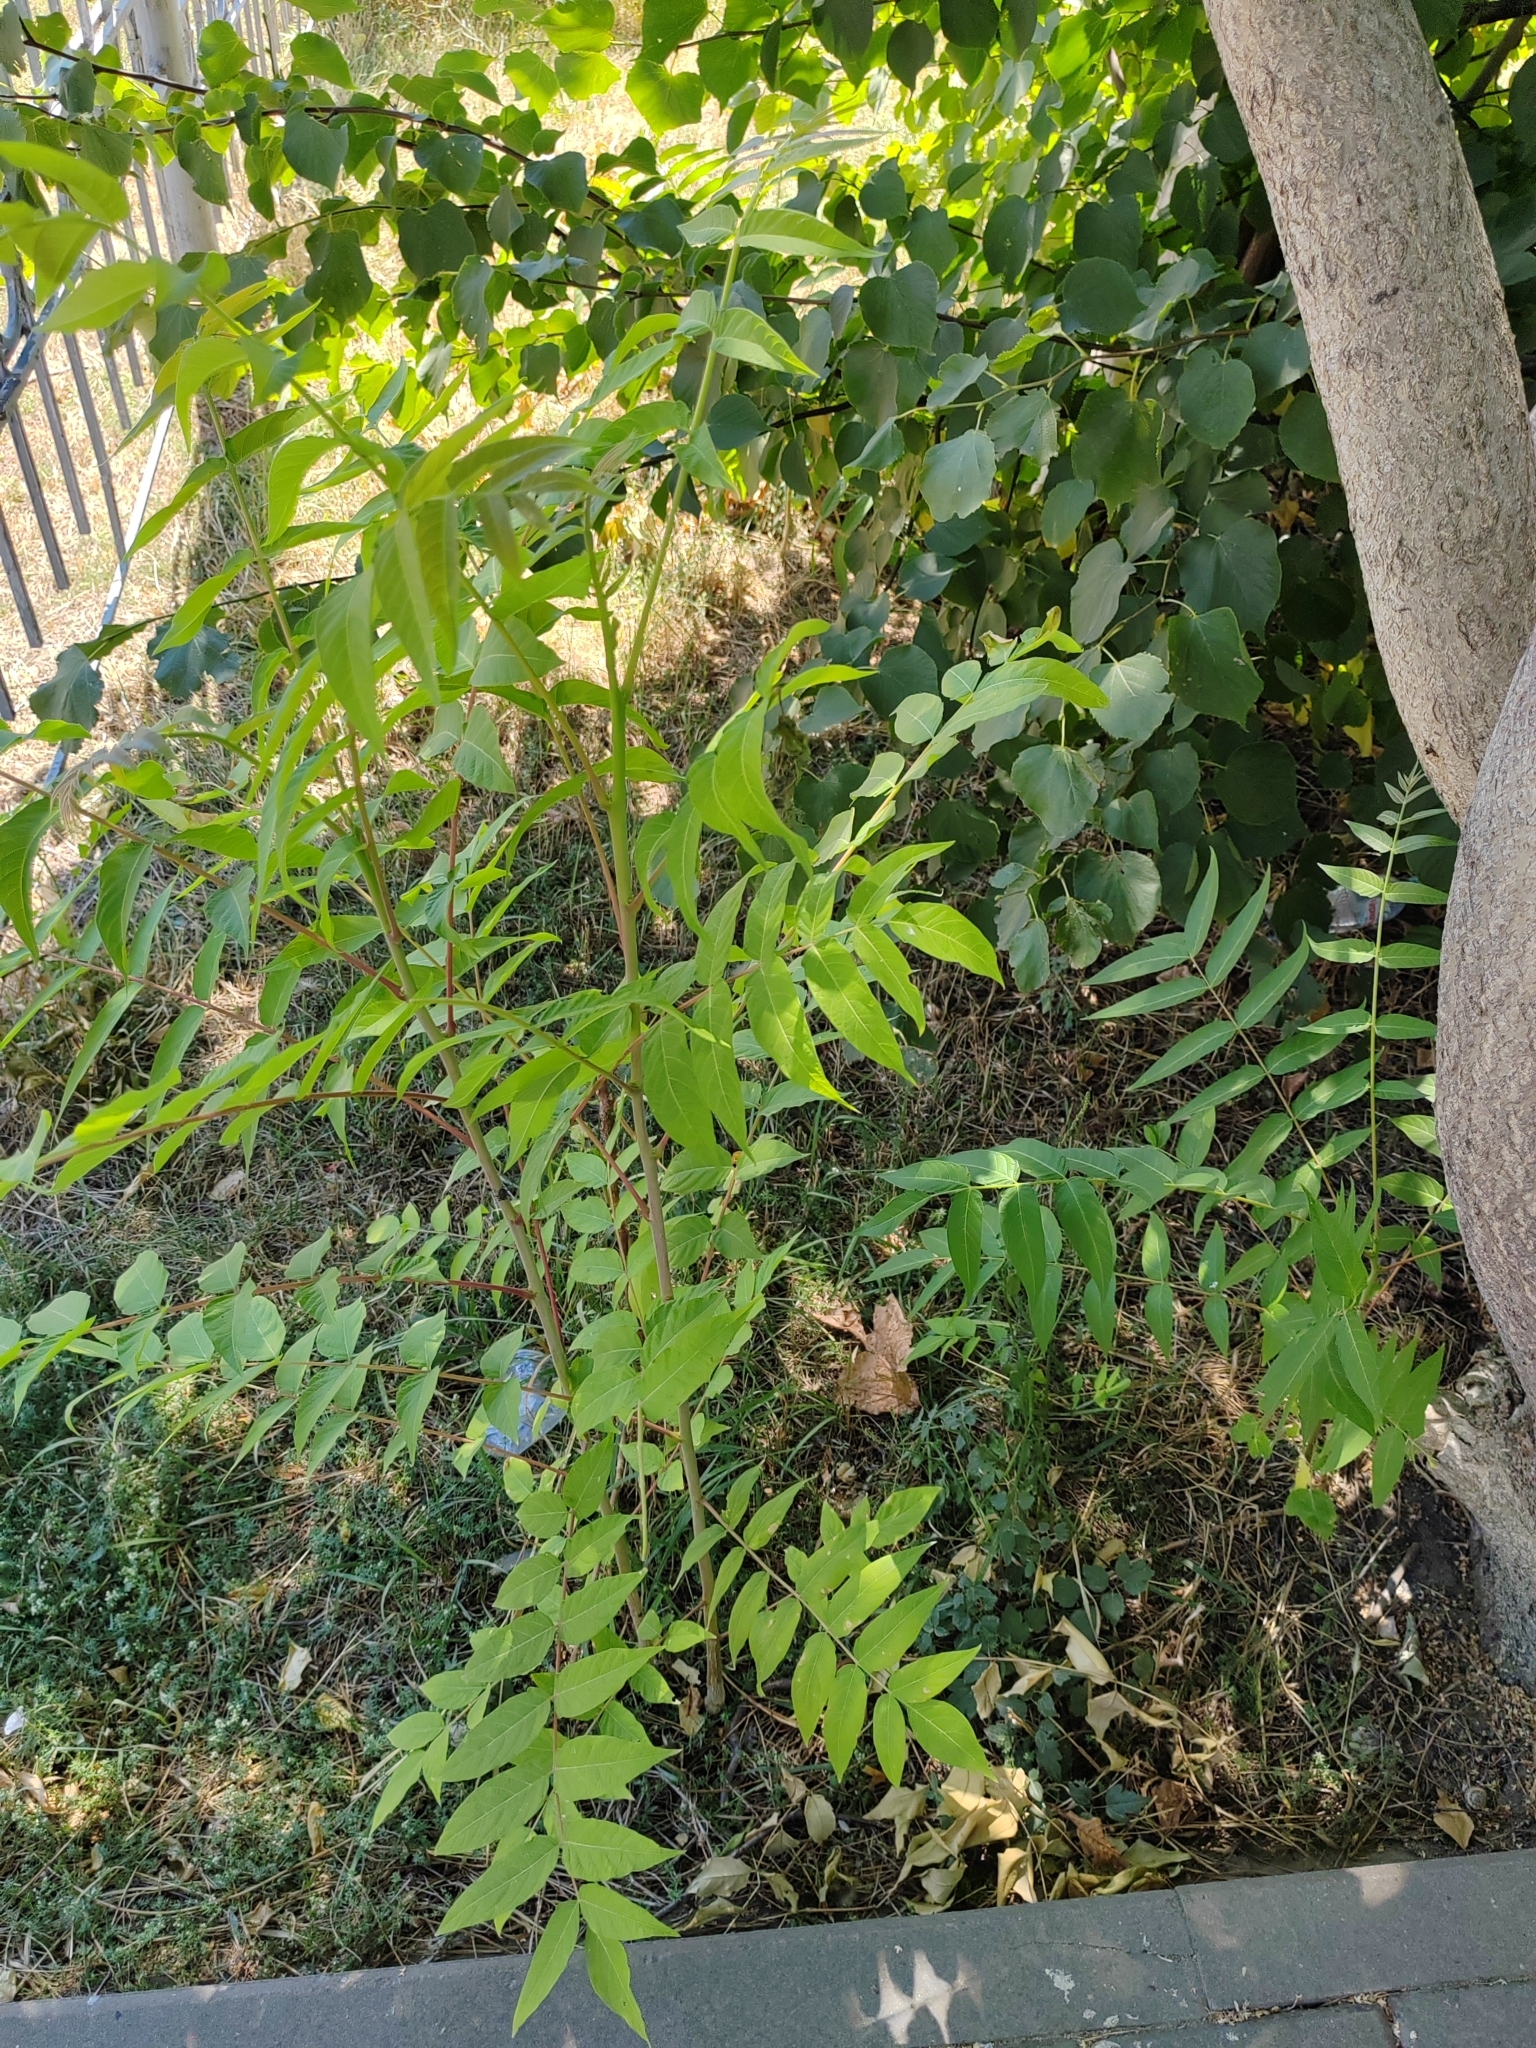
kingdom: Plantae
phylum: Tracheophyta
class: Magnoliopsida
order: Sapindales
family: Simaroubaceae
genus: Ailanthus
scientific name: Ailanthus altissima
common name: Tree-of-heaven
